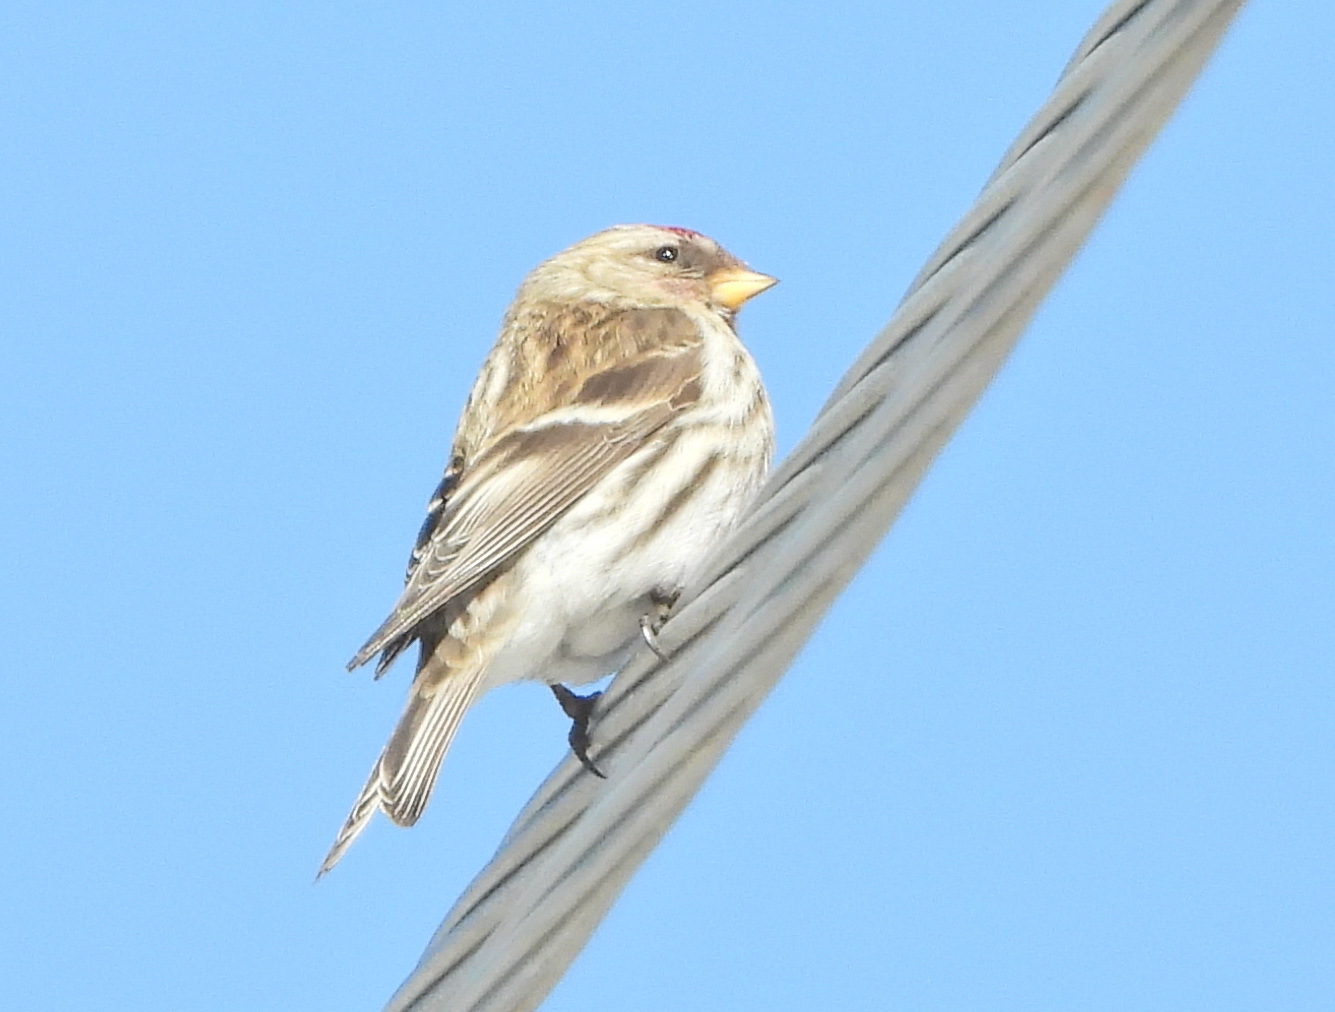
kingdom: Animalia
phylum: Chordata
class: Aves
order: Passeriformes
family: Fringillidae
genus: Acanthis
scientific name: Acanthis flammea
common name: Common redpoll
